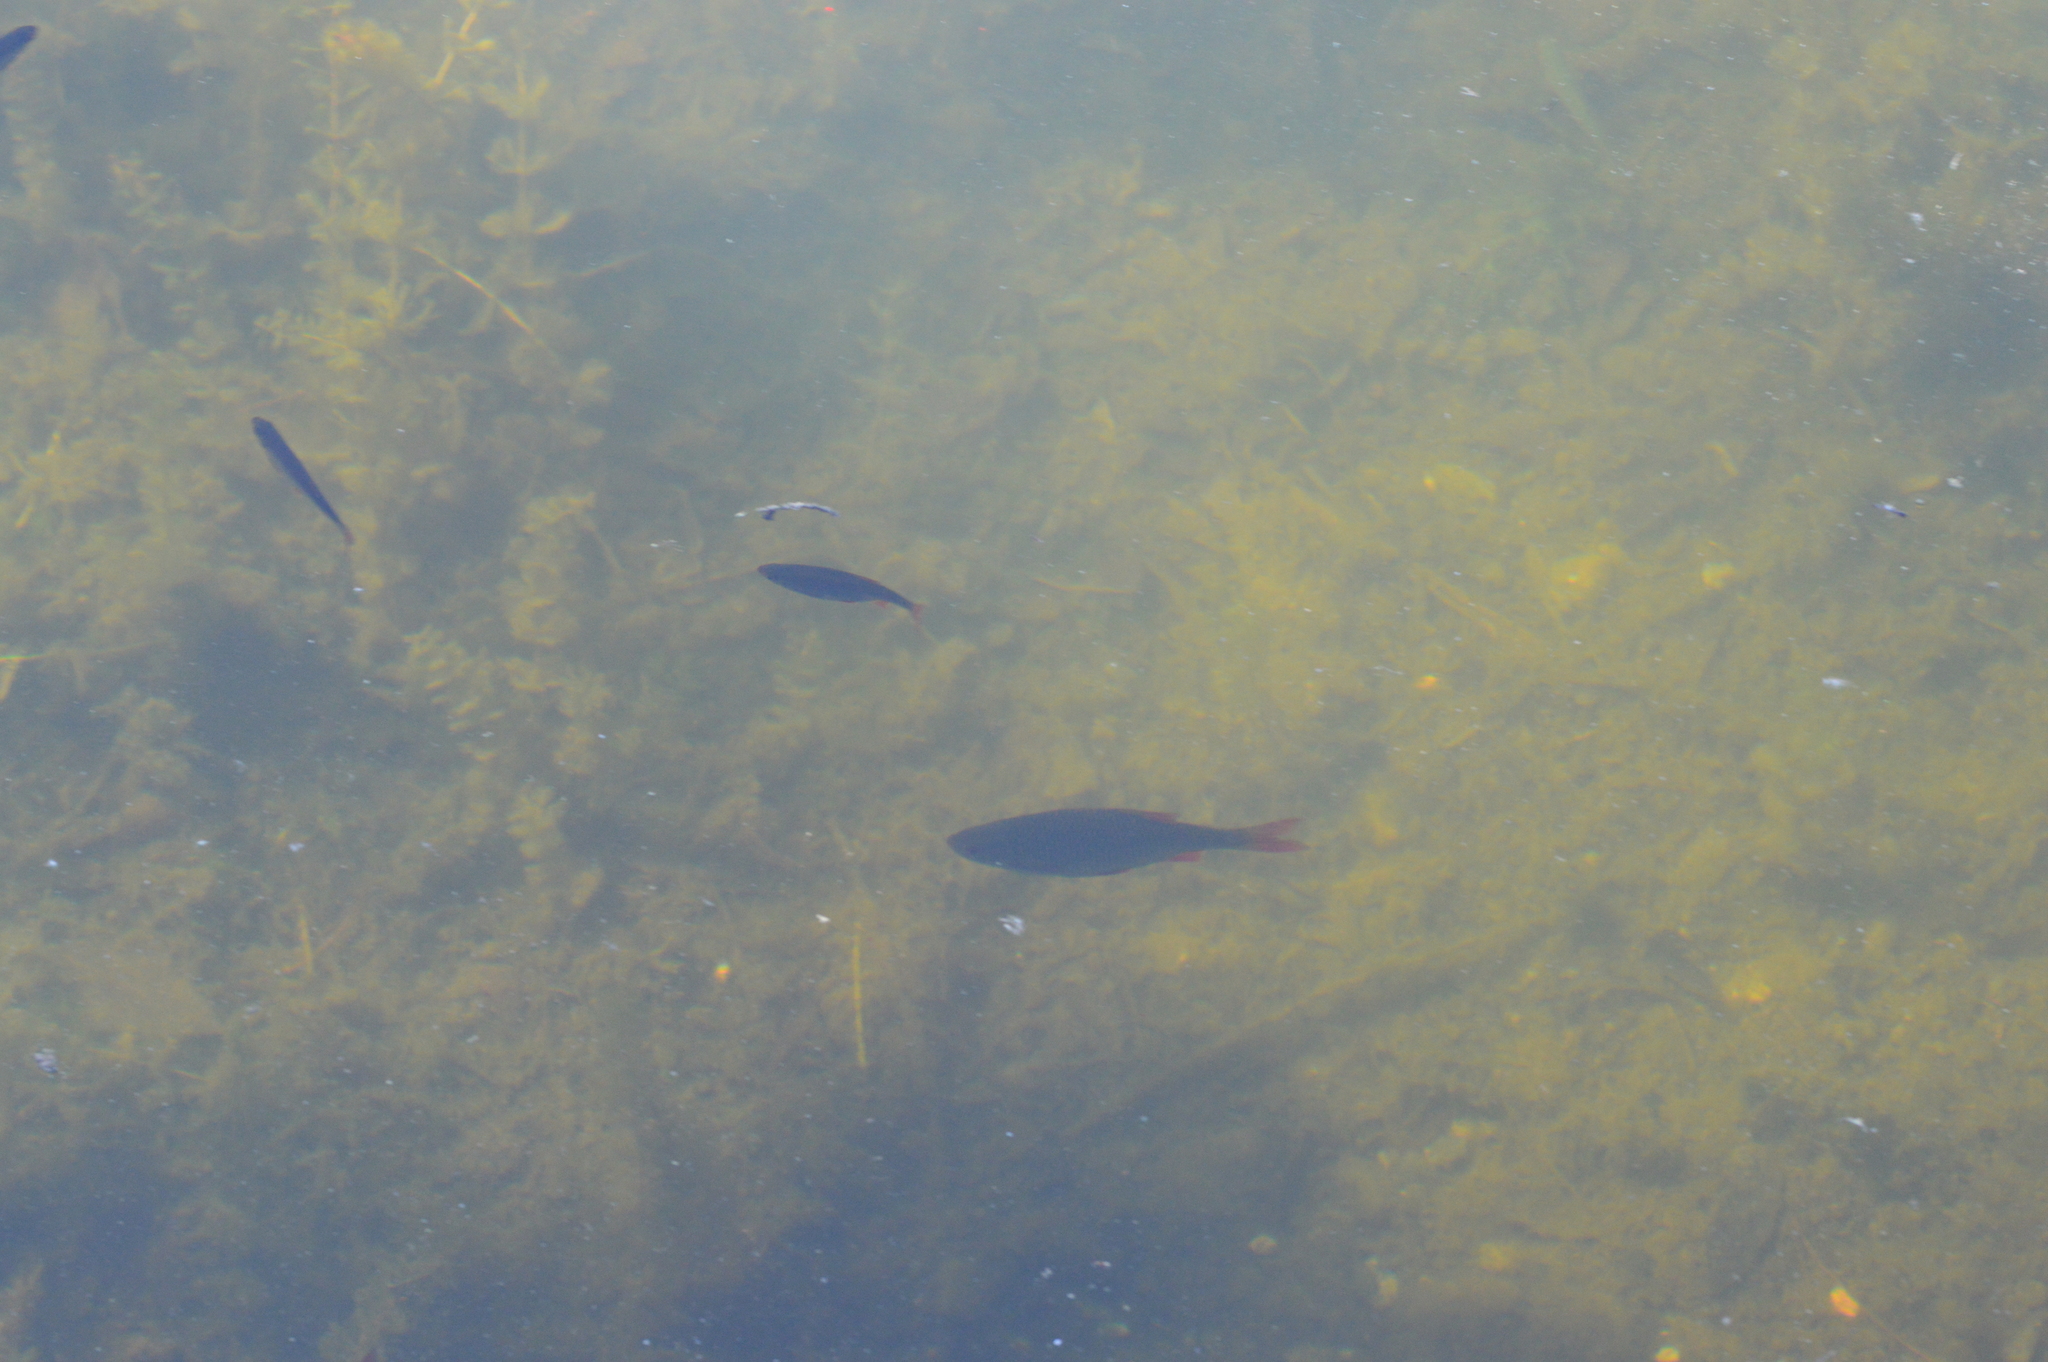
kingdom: Animalia
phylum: Chordata
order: Cypriniformes
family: Cyprinidae
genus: Scardinius
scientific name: Scardinius erythrophthalmus
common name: Rudd
